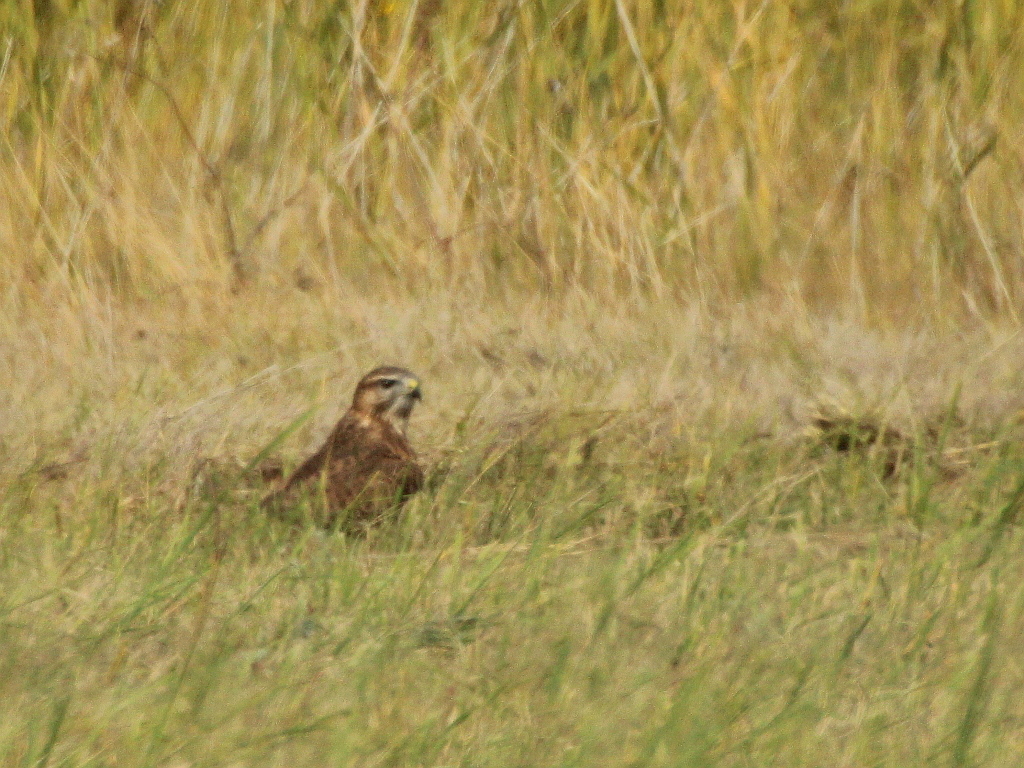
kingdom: Animalia
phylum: Chordata
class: Aves
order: Accipitriformes
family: Accipitridae
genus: Buteo
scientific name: Buteo buteo
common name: Common buzzard
